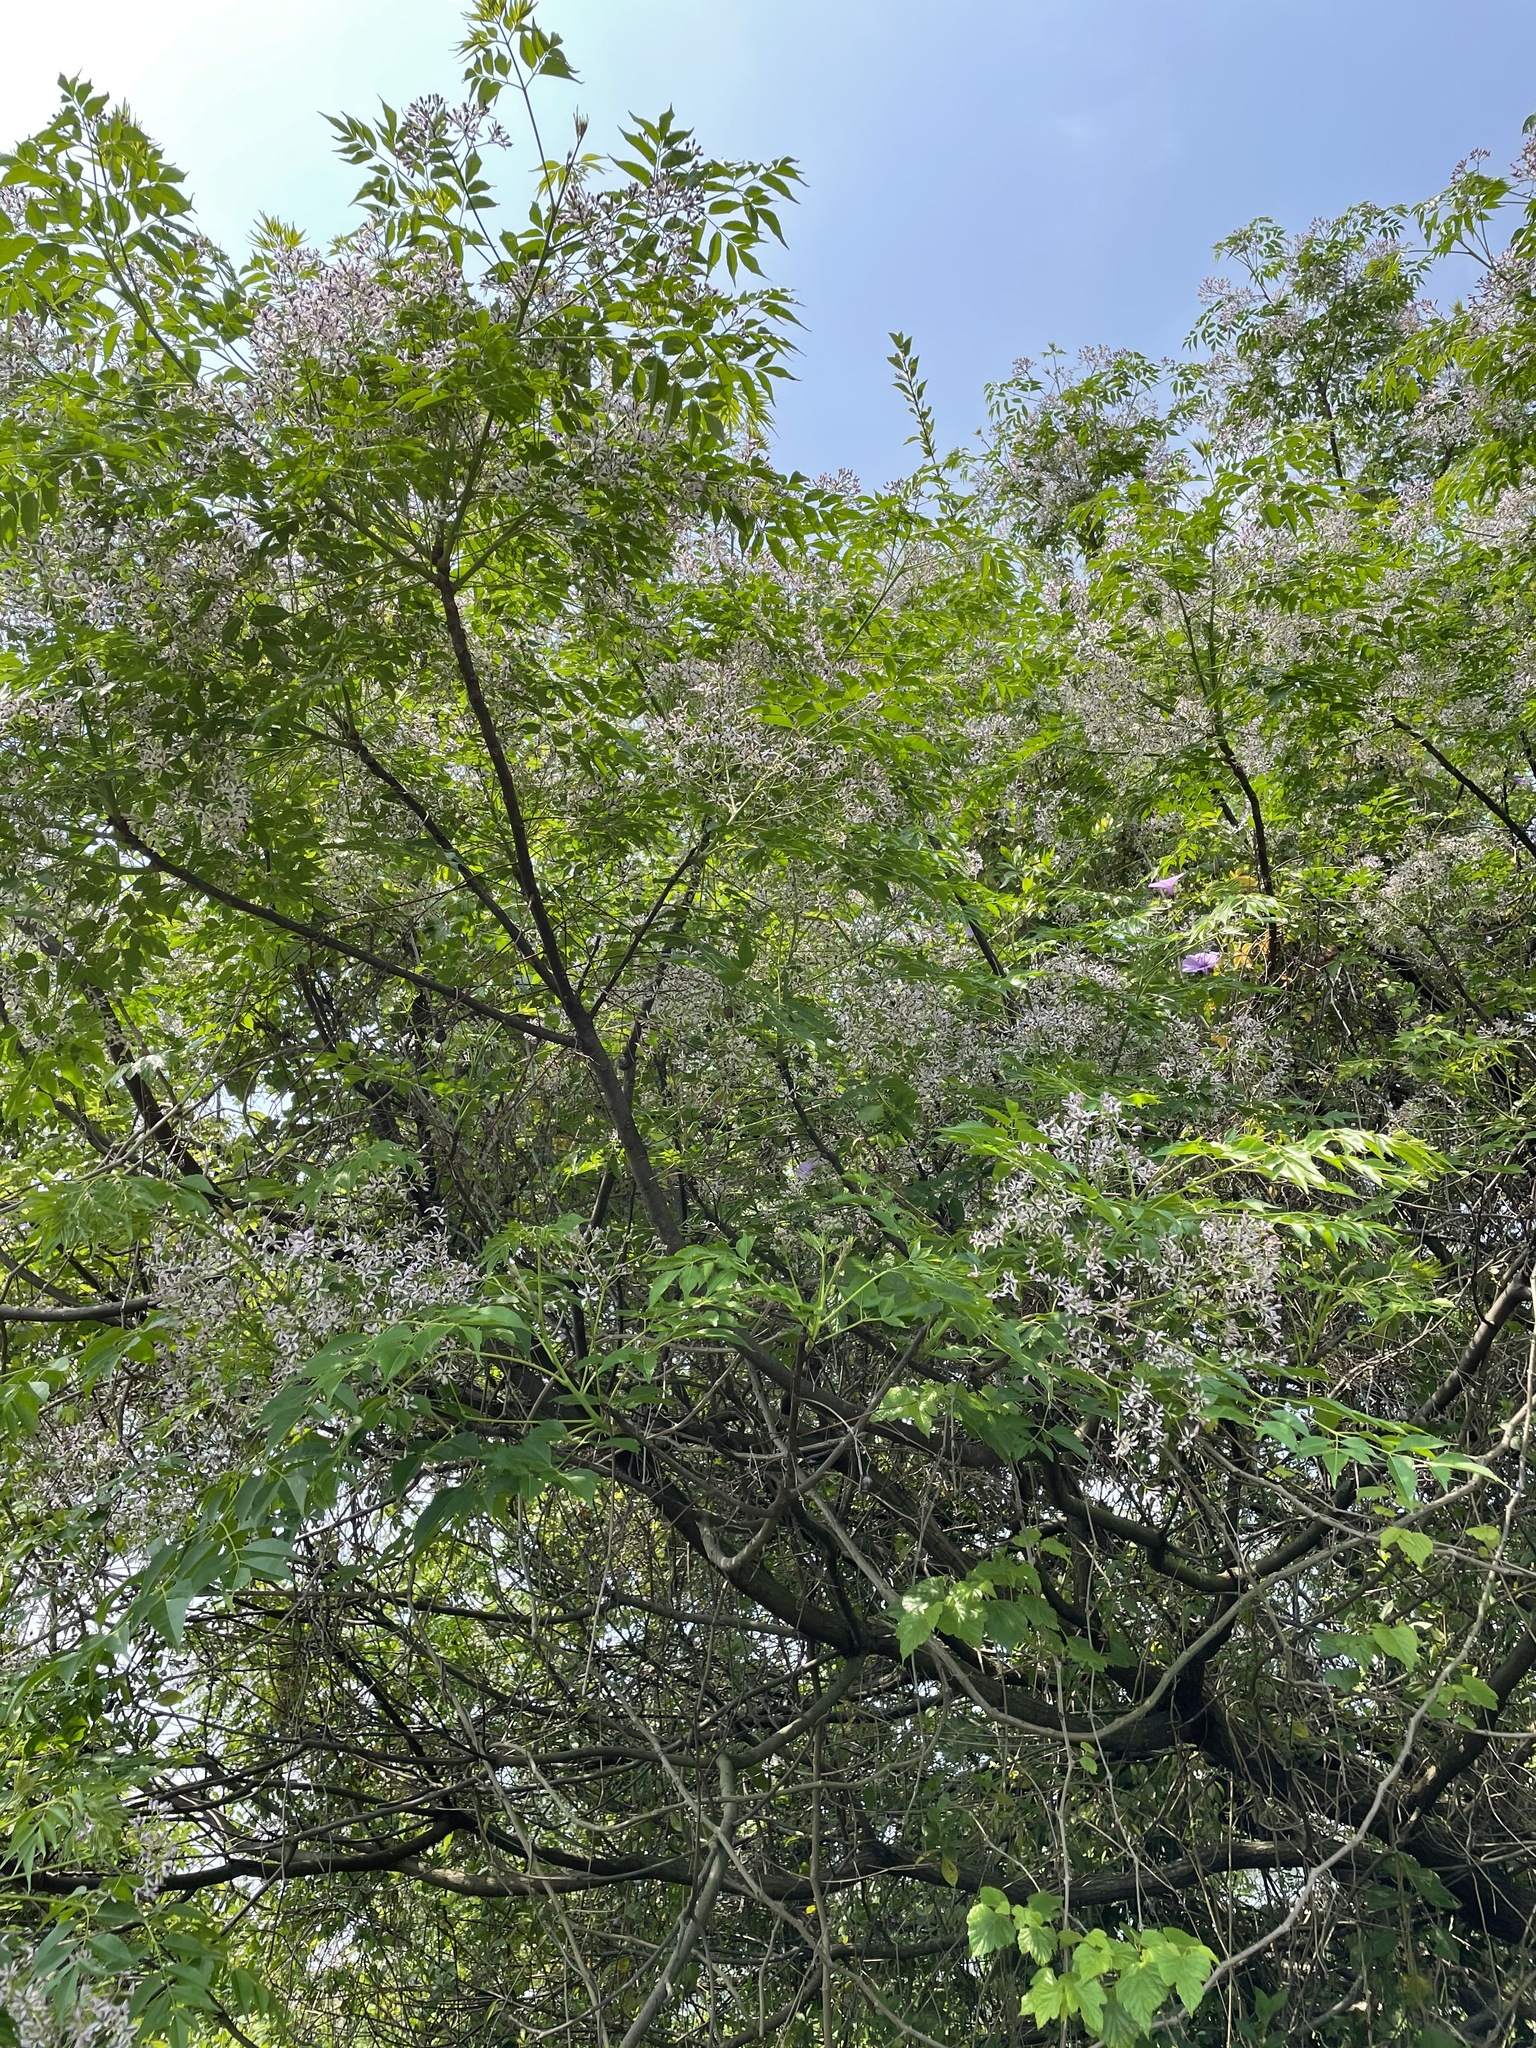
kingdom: Plantae
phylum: Tracheophyta
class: Magnoliopsida
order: Sapindales
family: Meliaceae
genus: Melia
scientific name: Melia azedarach
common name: Chinaberrytree
